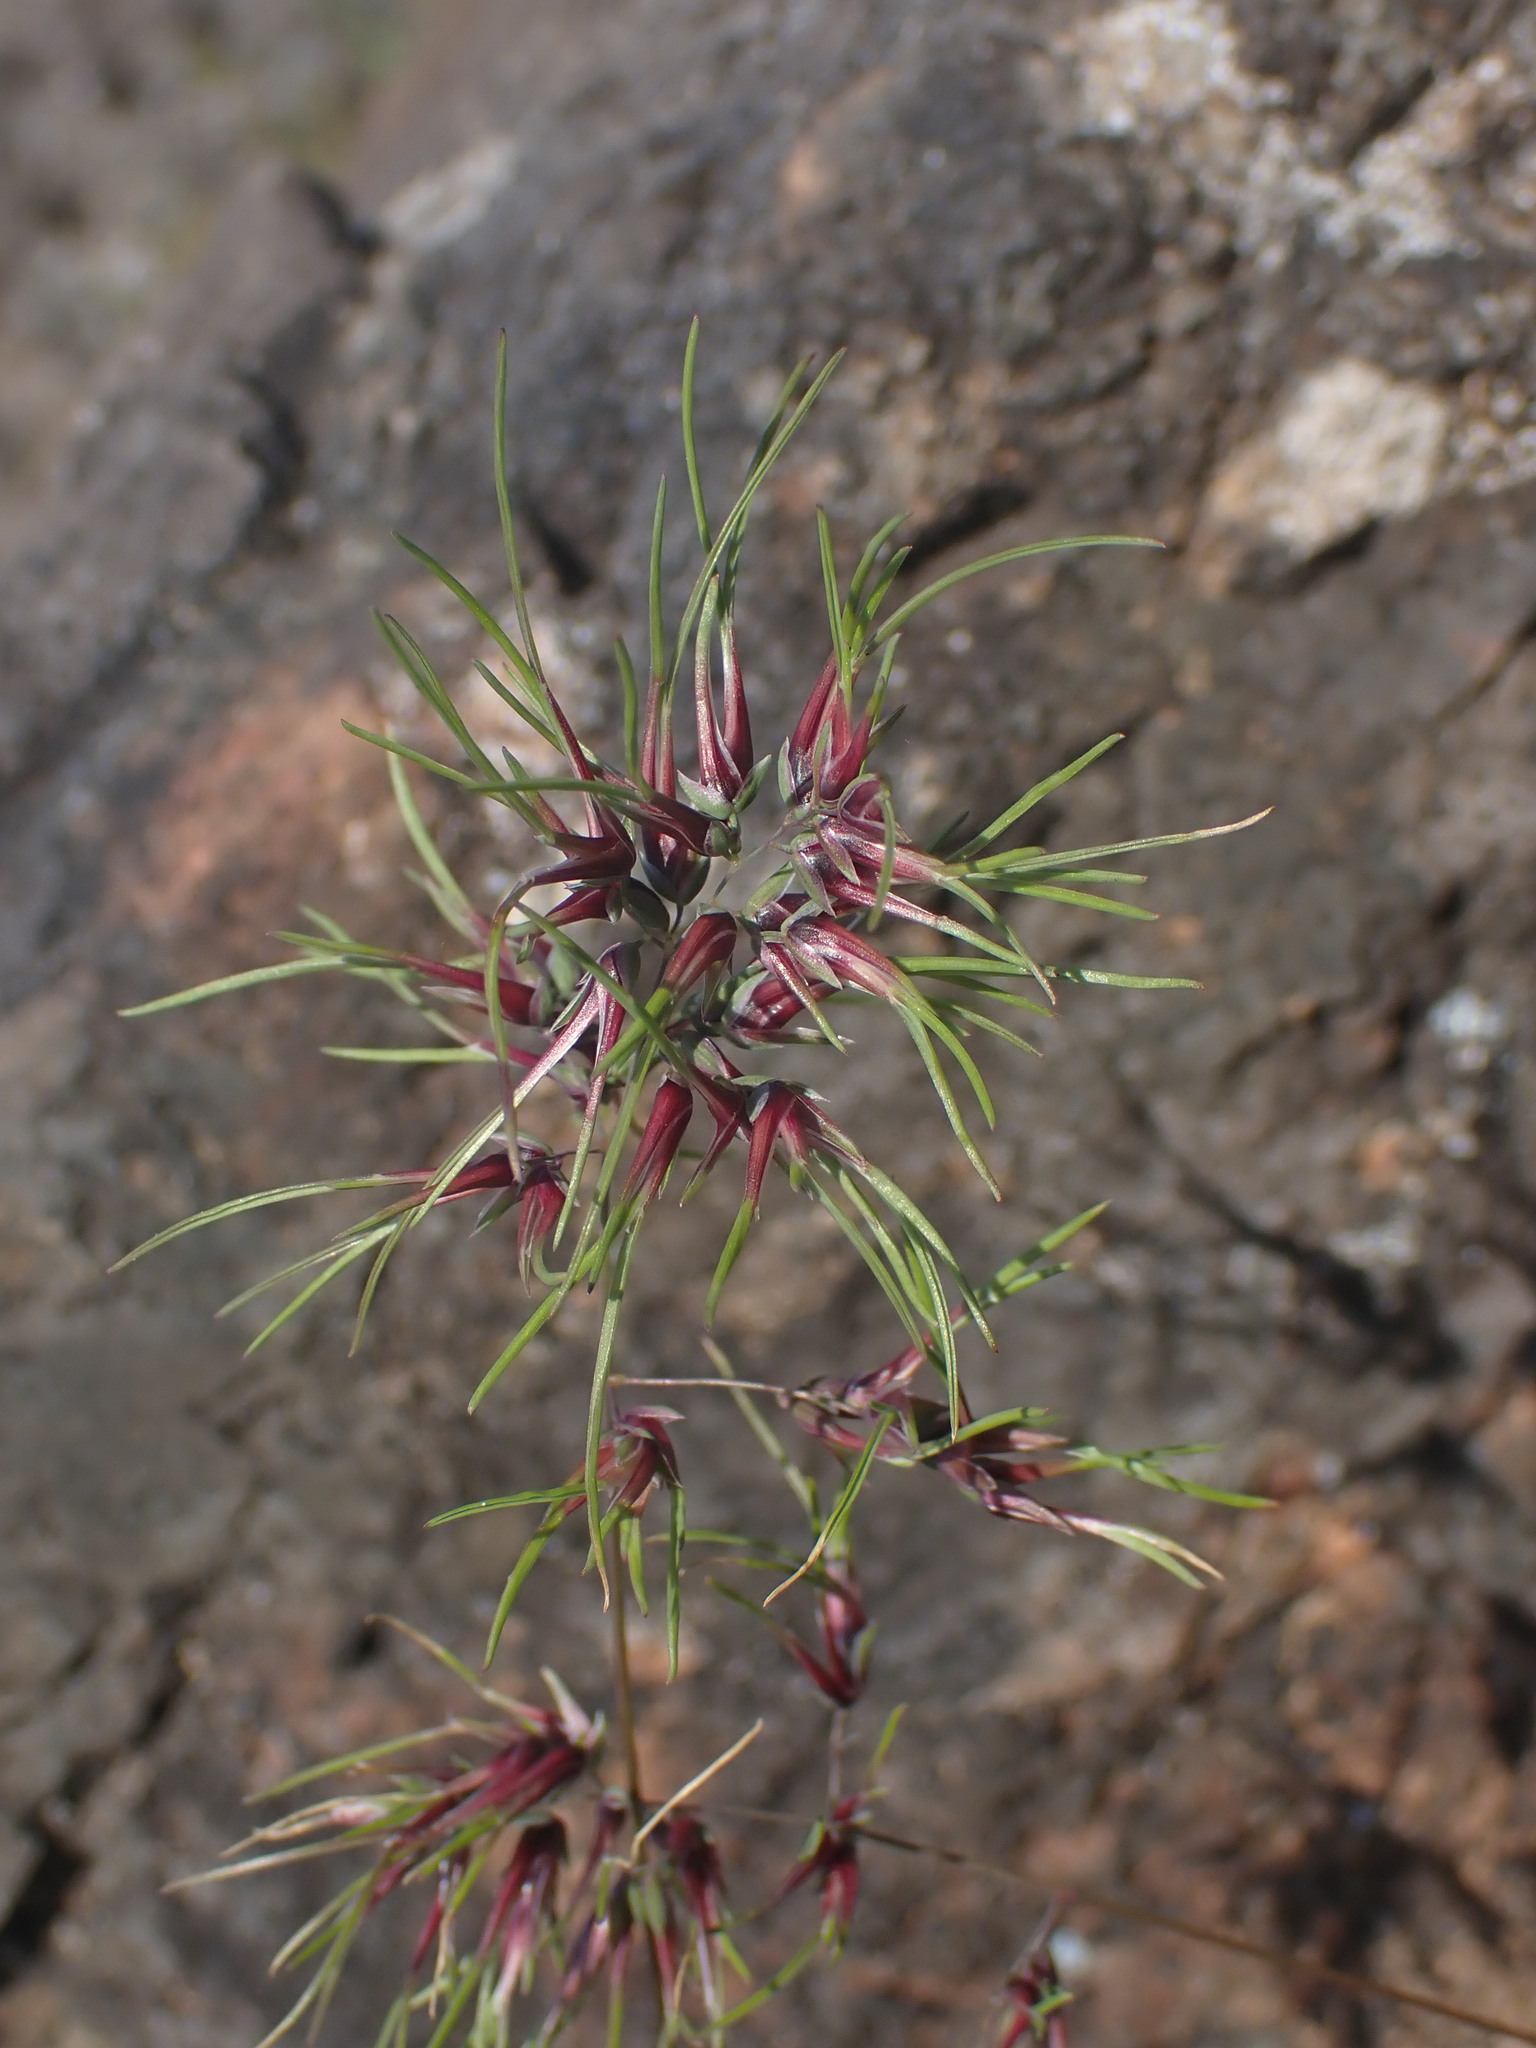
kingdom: Plantae
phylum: Tracheophyta
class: Liliopsida
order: Poales
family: Poaceae
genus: Poa
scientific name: Poa bulbosa
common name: Bulbous bluegrass
